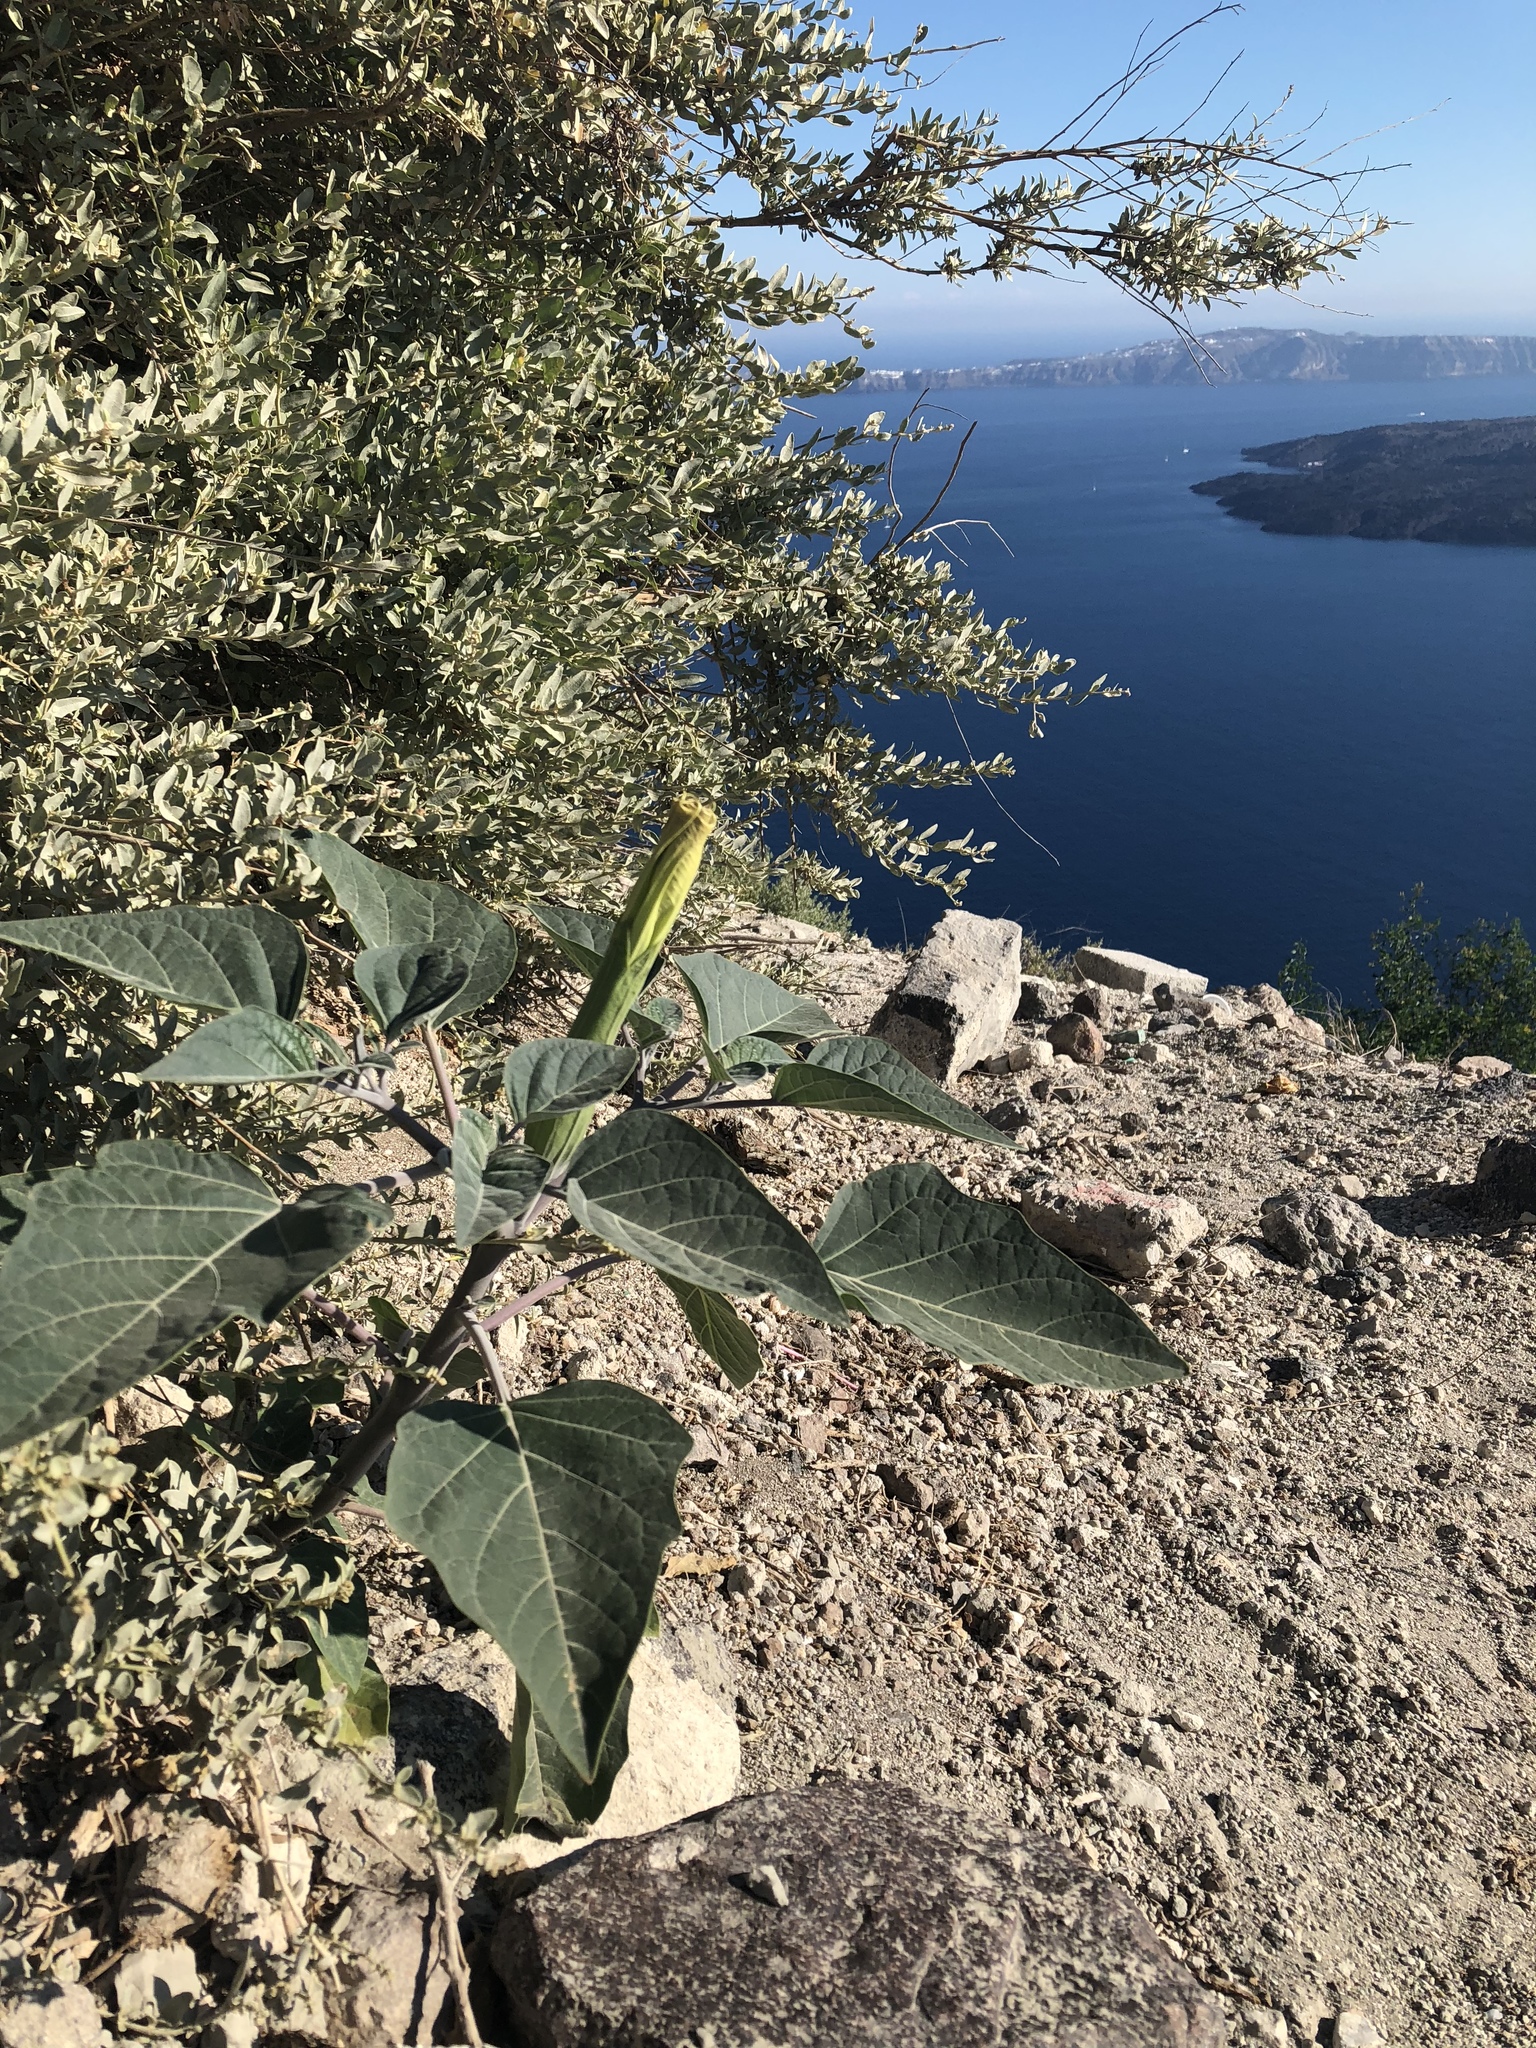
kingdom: Plantae
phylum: Tracheophyta
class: Magnoliopsida
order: Solanales
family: Solanaceae
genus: Datura
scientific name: Datura
